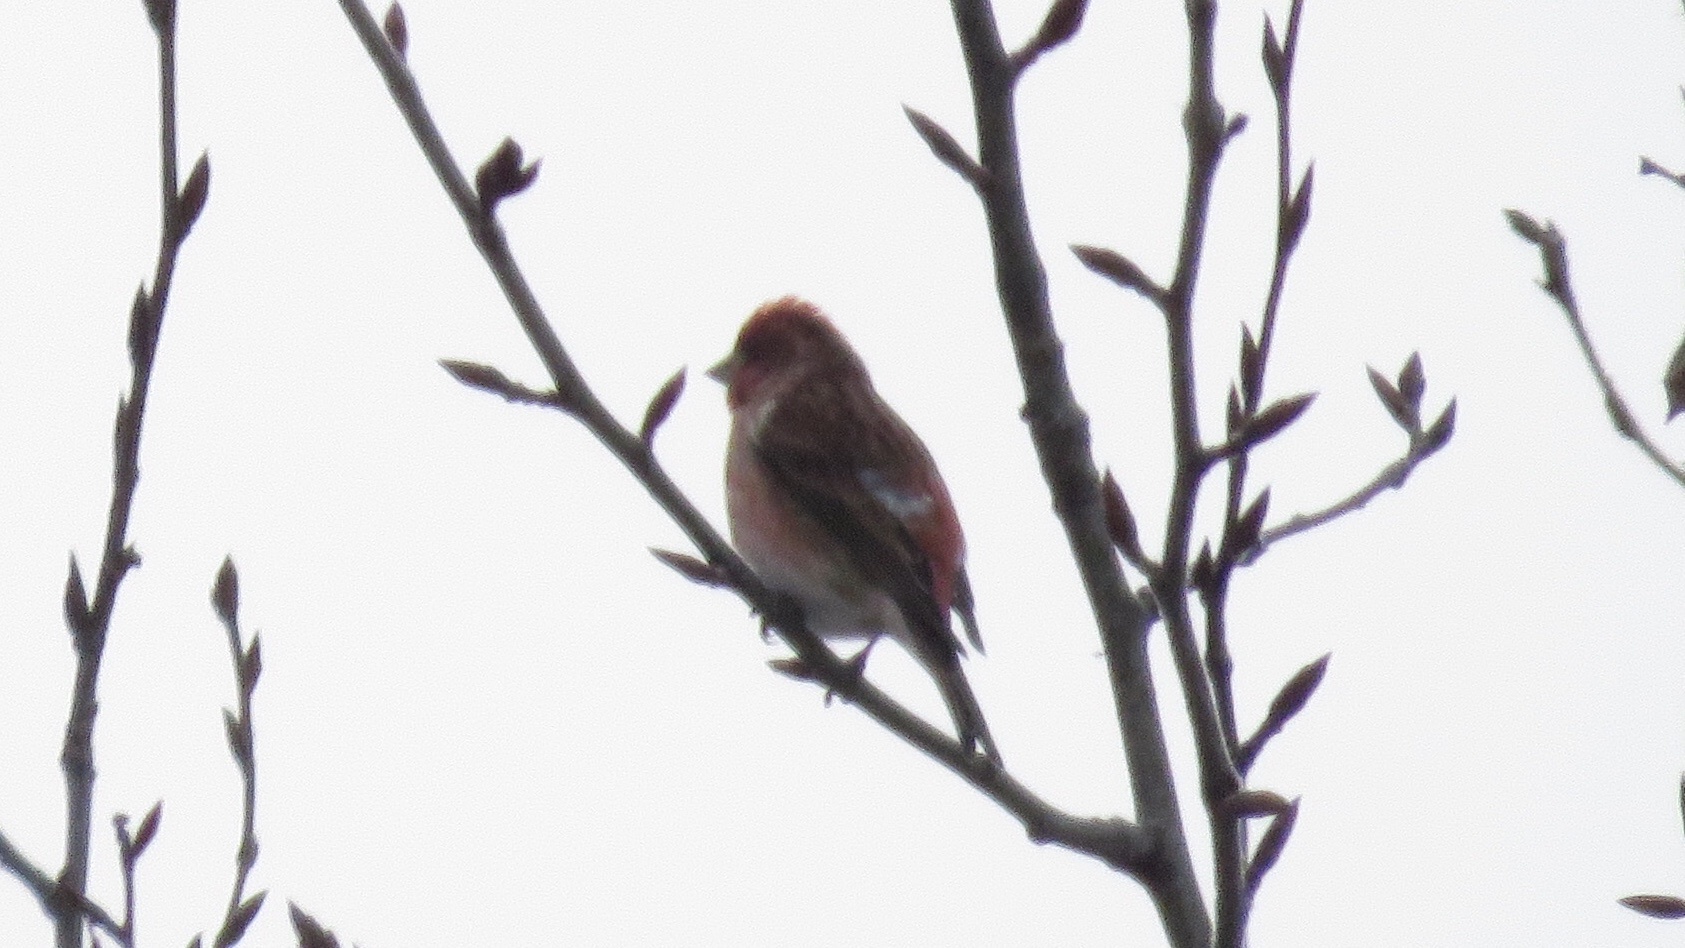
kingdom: Animalia
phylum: Chordata
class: Aves
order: Passeriformes
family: Fringillidae
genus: Haemorhous
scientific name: Haemorhous purpureus
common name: Purple finch
